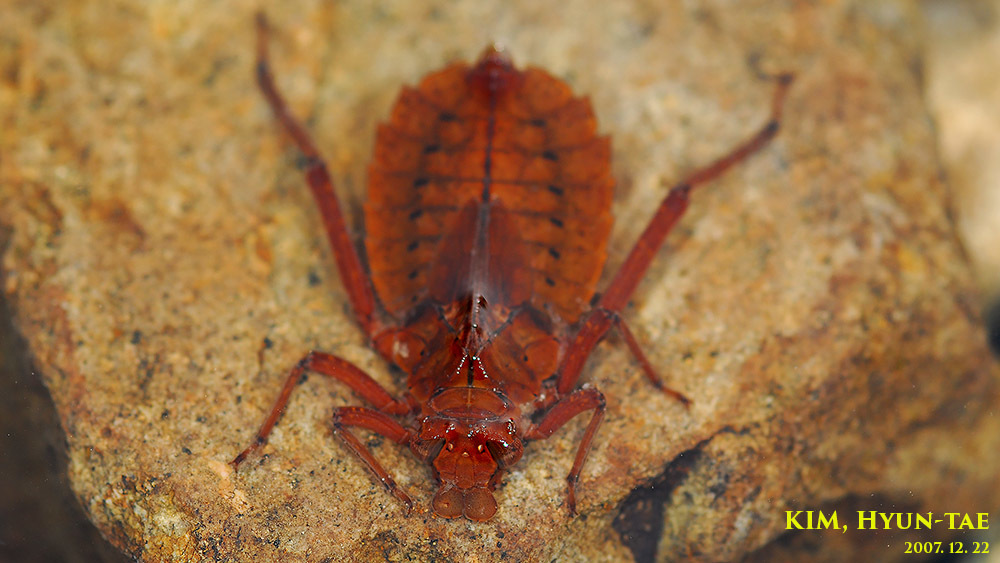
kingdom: Animalia
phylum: Arthropoda
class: Insecta
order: Odonata
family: Gomphidae
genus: Sieboldius
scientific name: Sieboldius albardae
